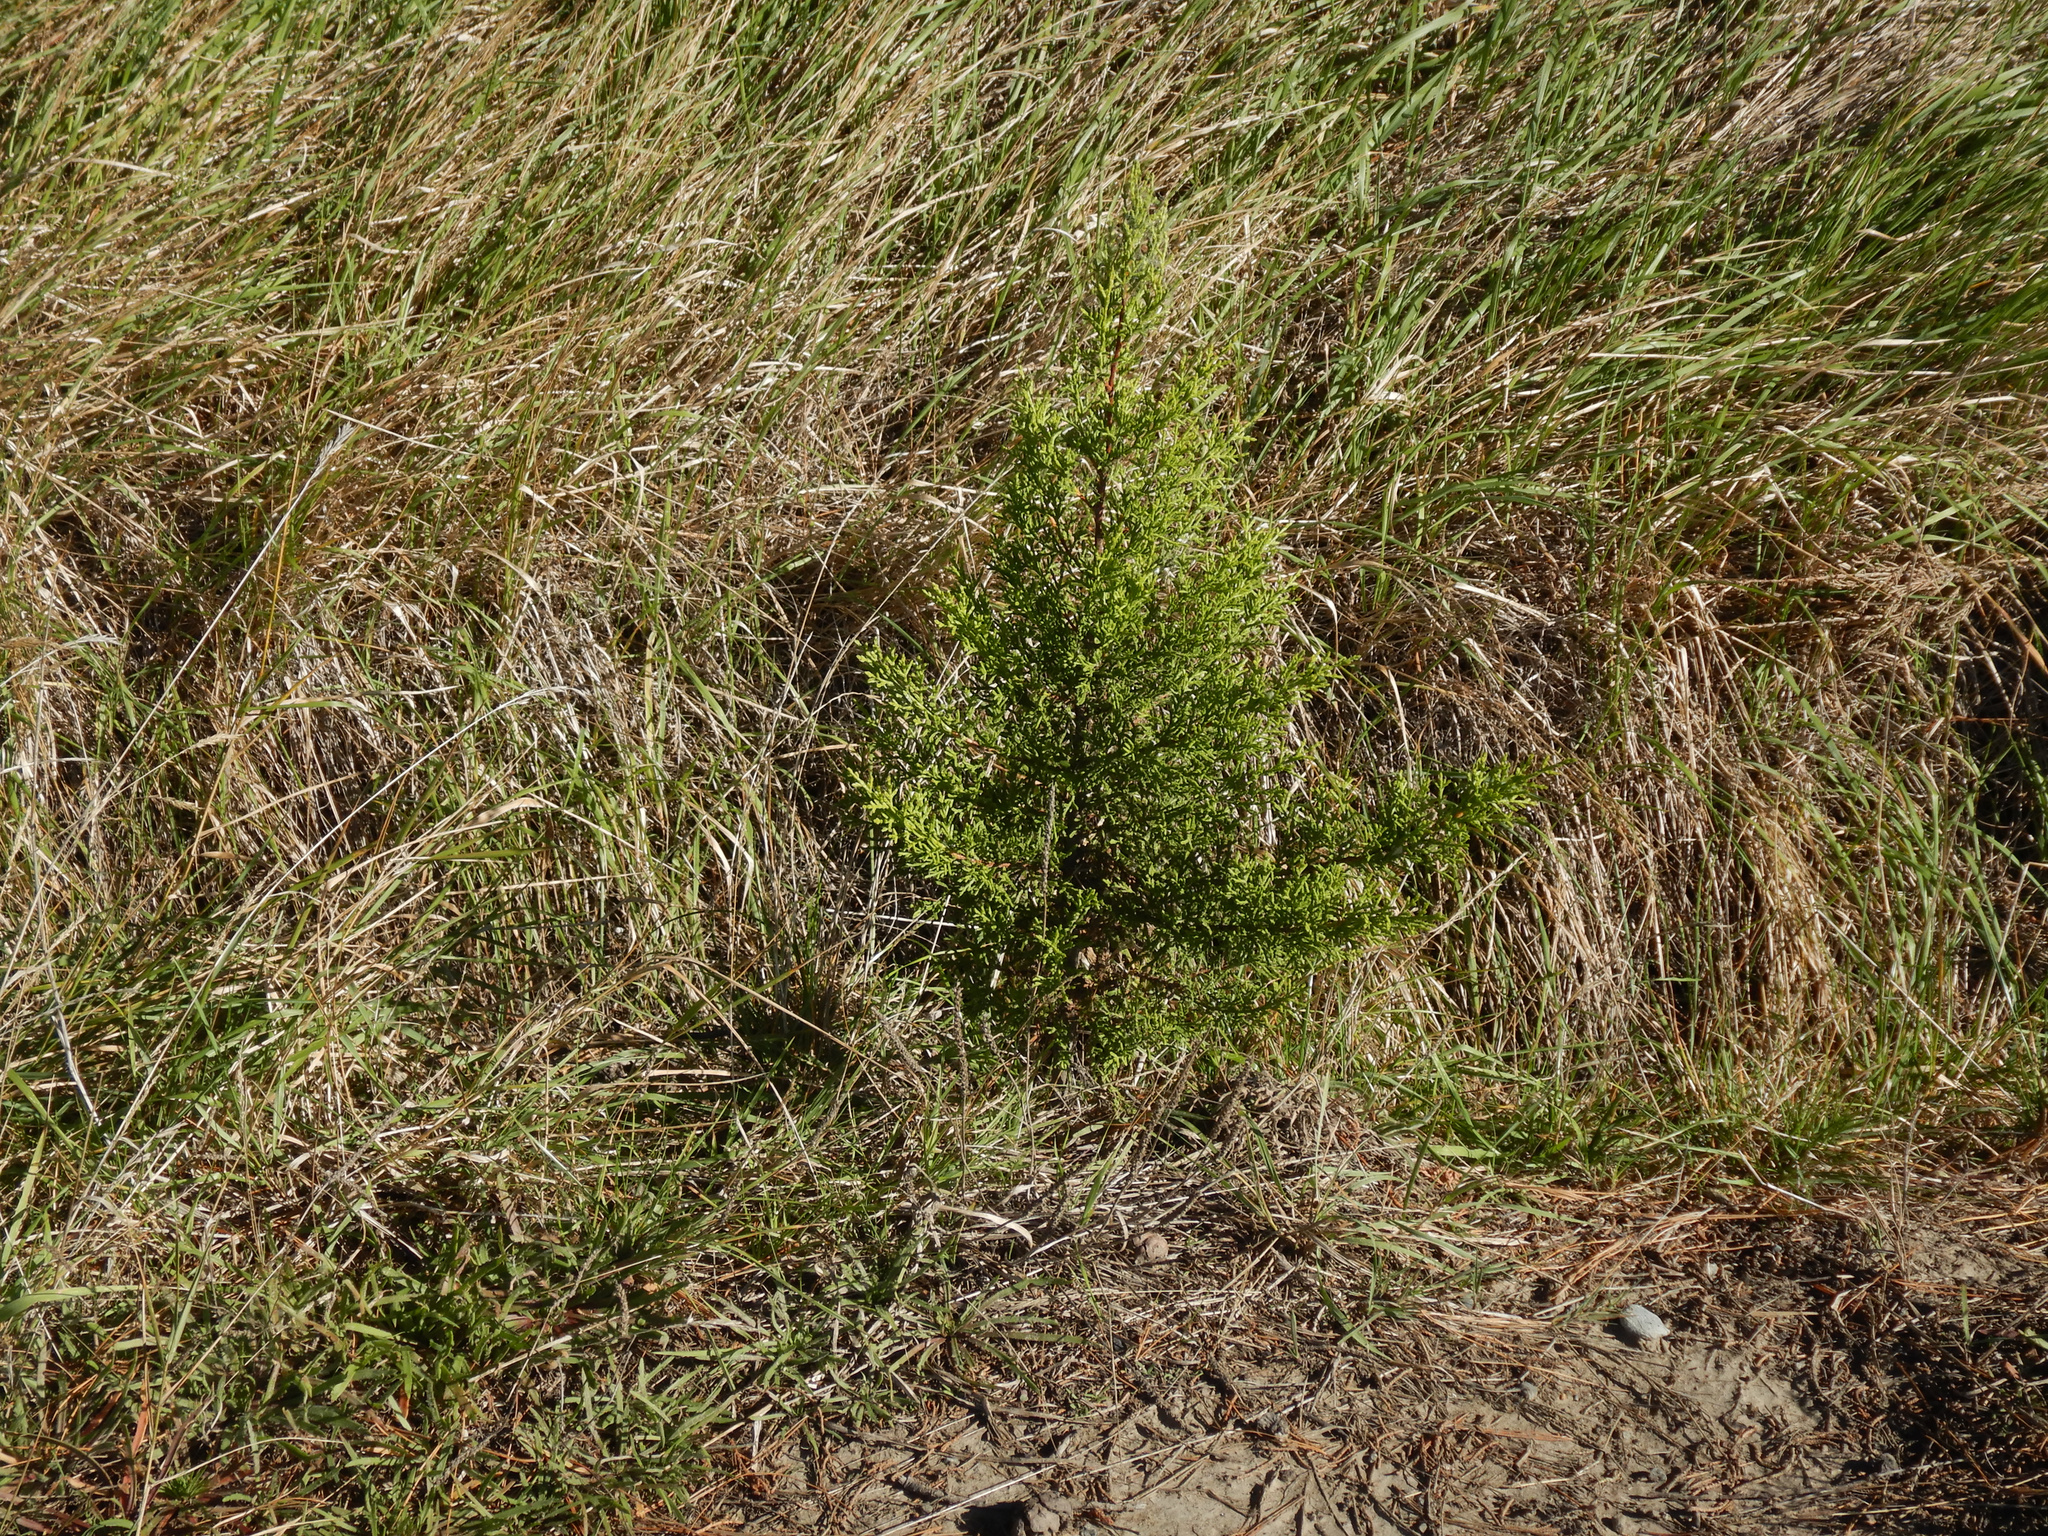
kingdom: Plantae
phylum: Tracheophyta
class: Pinopsida
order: Pinales
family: Cupressaceae
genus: Cupressus
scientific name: Cupressus macrocarpa
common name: Monterey cypress
